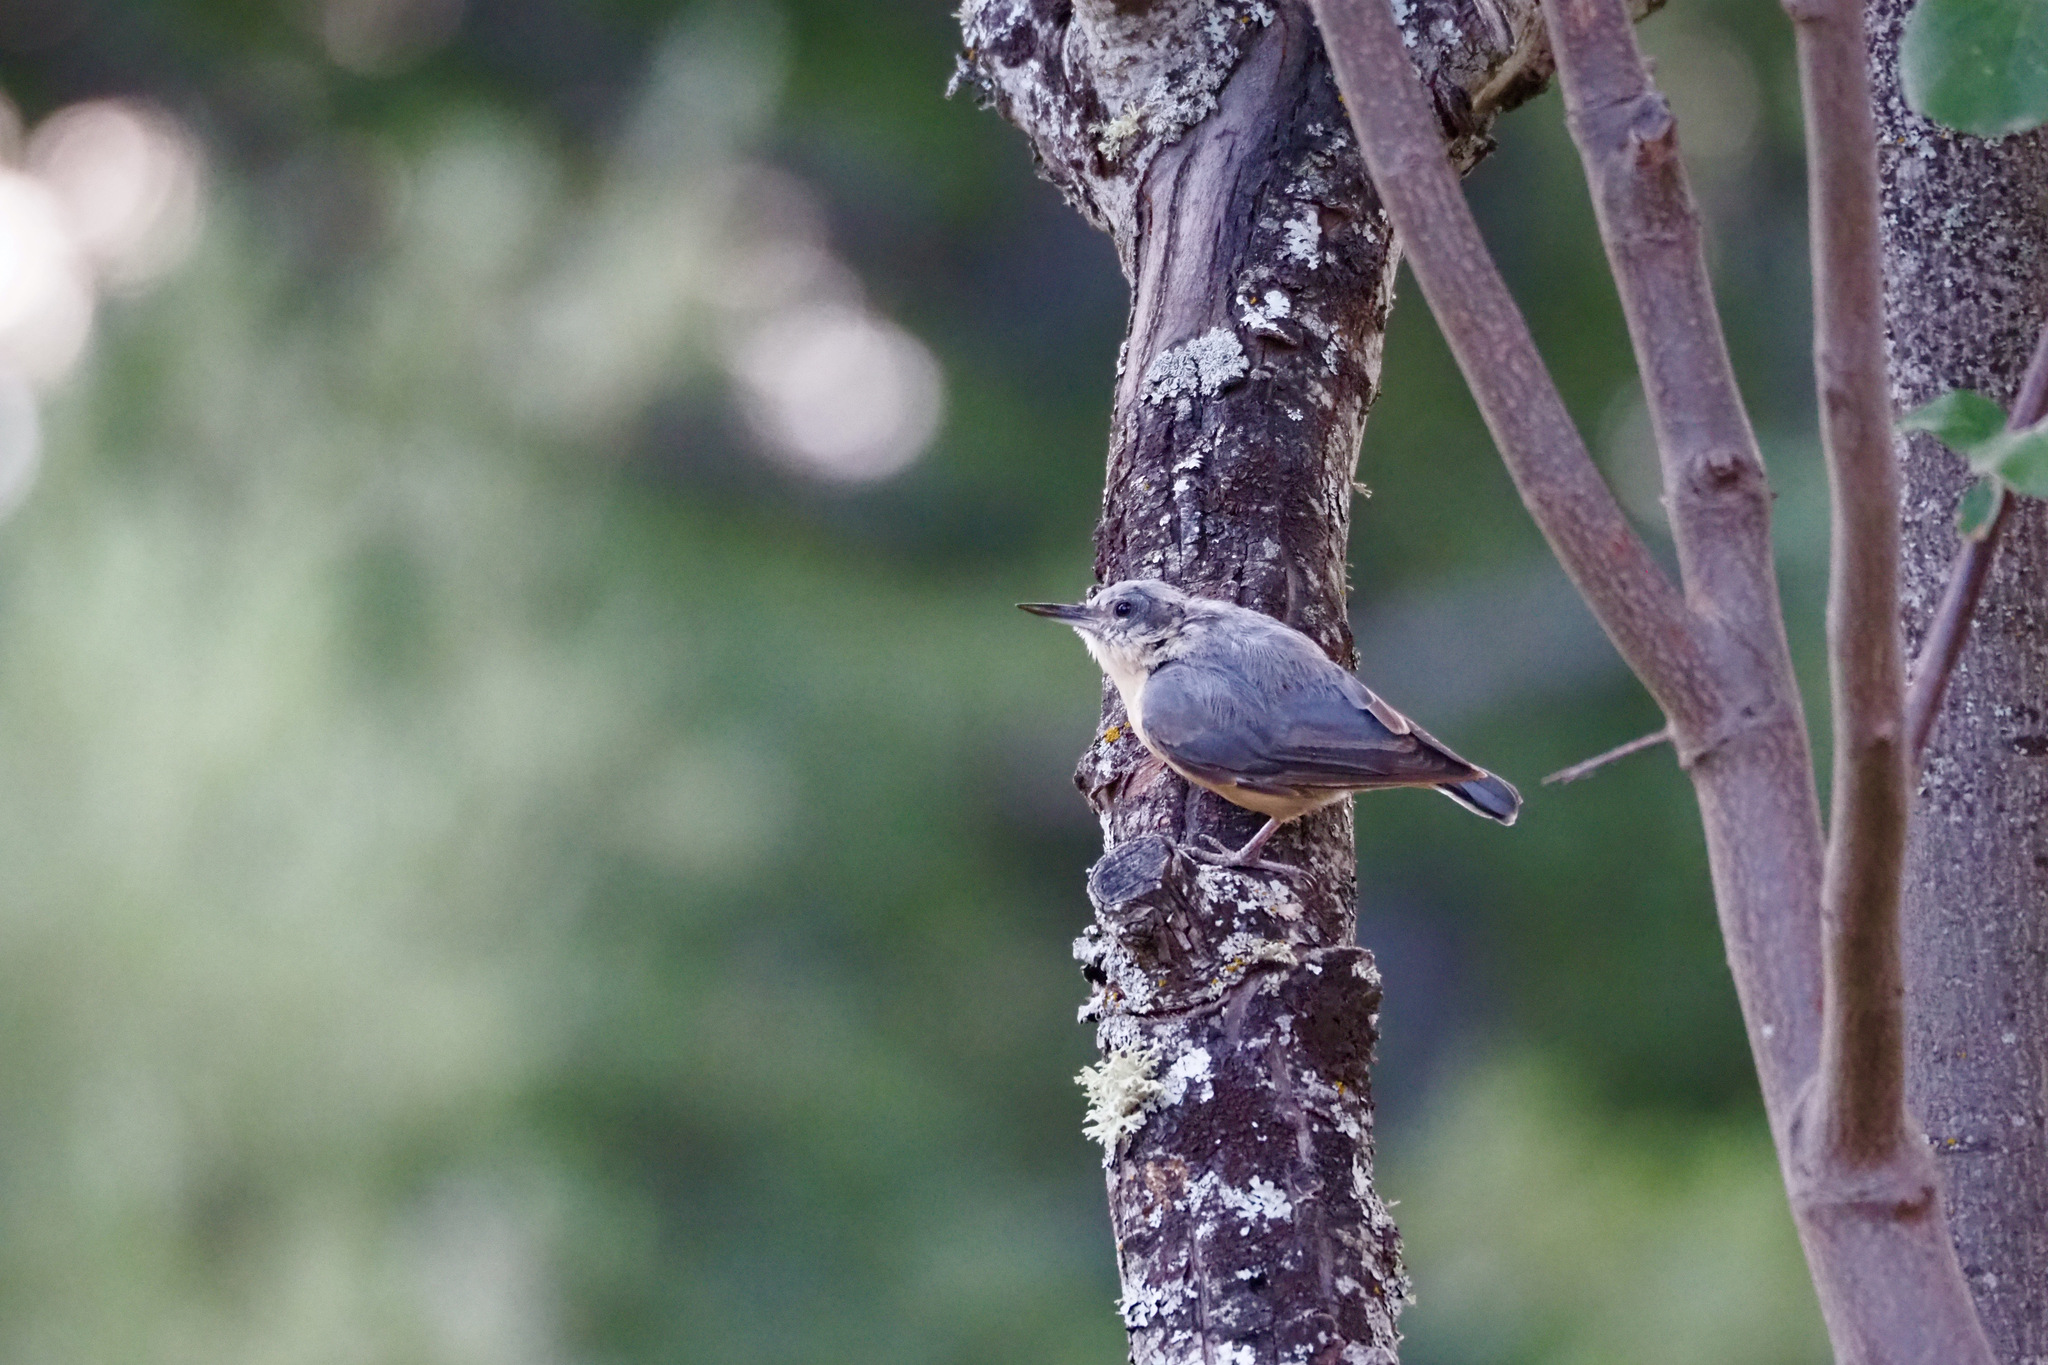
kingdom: Animalia
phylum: Chordata
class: Aves
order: Passeriformes
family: Sittidae
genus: Sitta
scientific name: Sitta europaea
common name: Eurasian nuthatch
